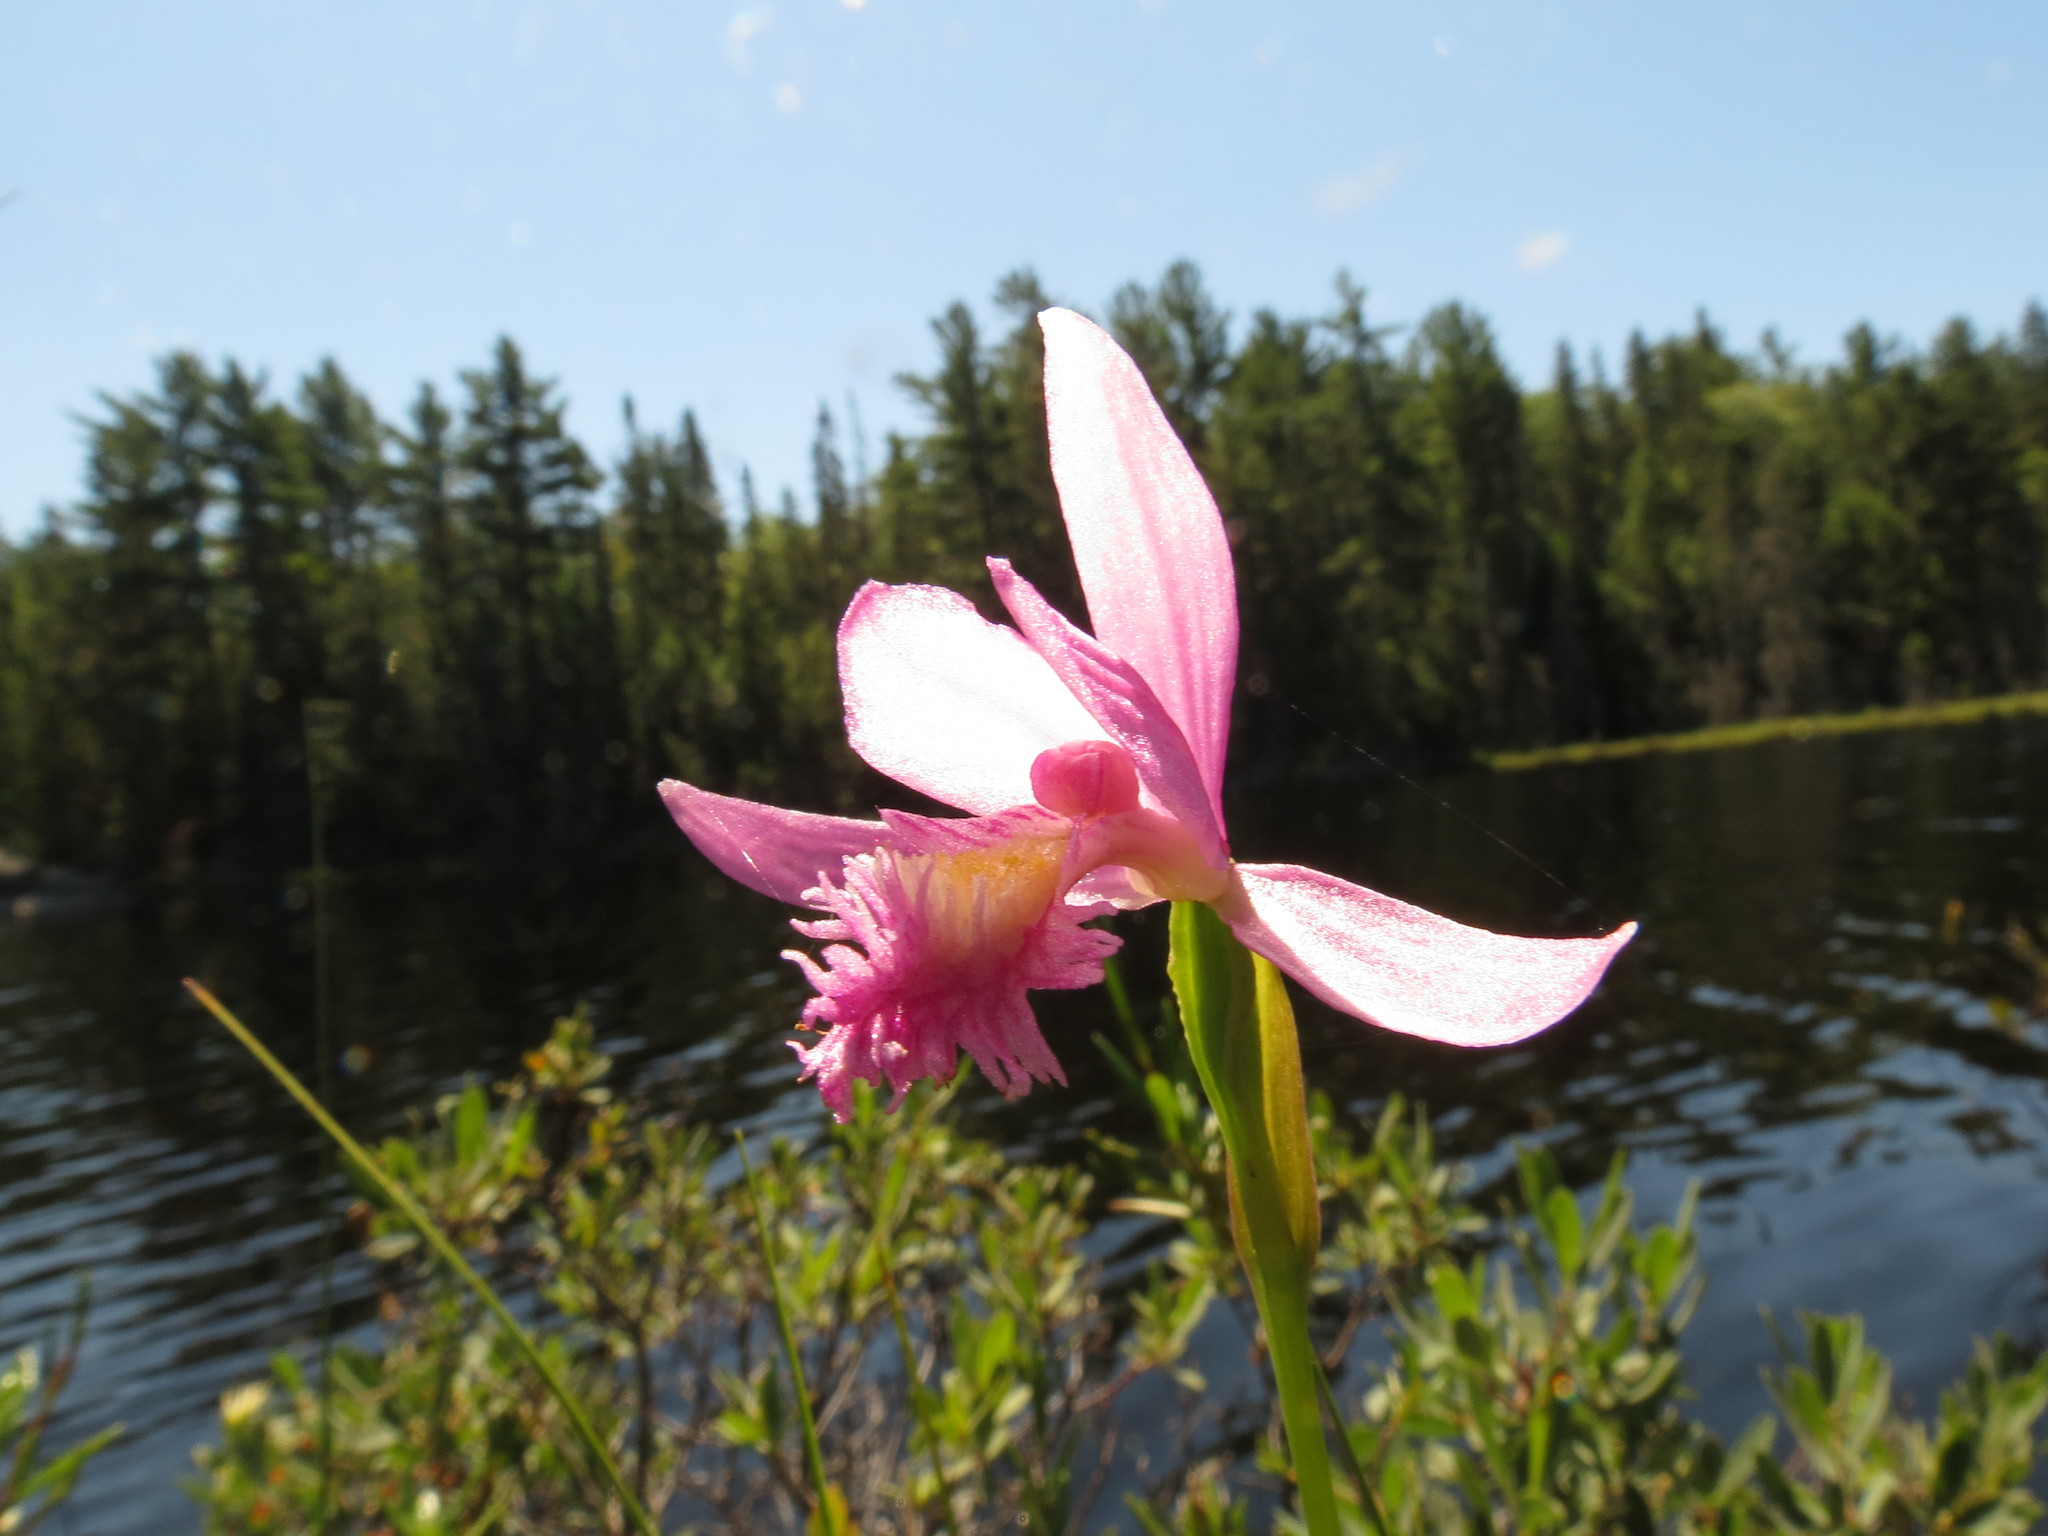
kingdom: Plantae
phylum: Tracheophyta
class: Liliopsida
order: Asparagales
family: Orchidaceae
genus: Pogonia
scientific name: Pogonia ophioglossoides
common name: Rose pogonia
